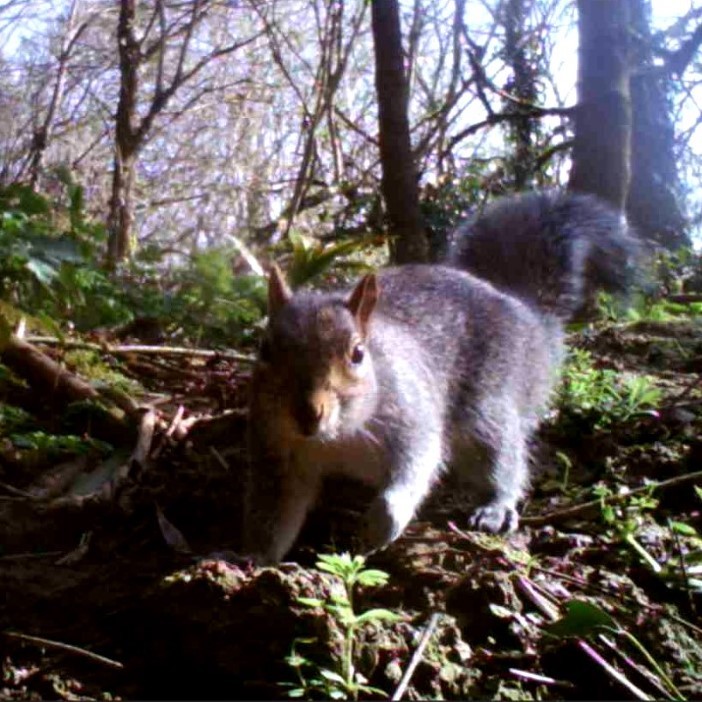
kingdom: Animalia
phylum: Chordata
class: Mammalia
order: Rodentia
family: Sciuridae
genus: Sciurus
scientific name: Sciurus carolinensis
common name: Eastern gray squirrel
